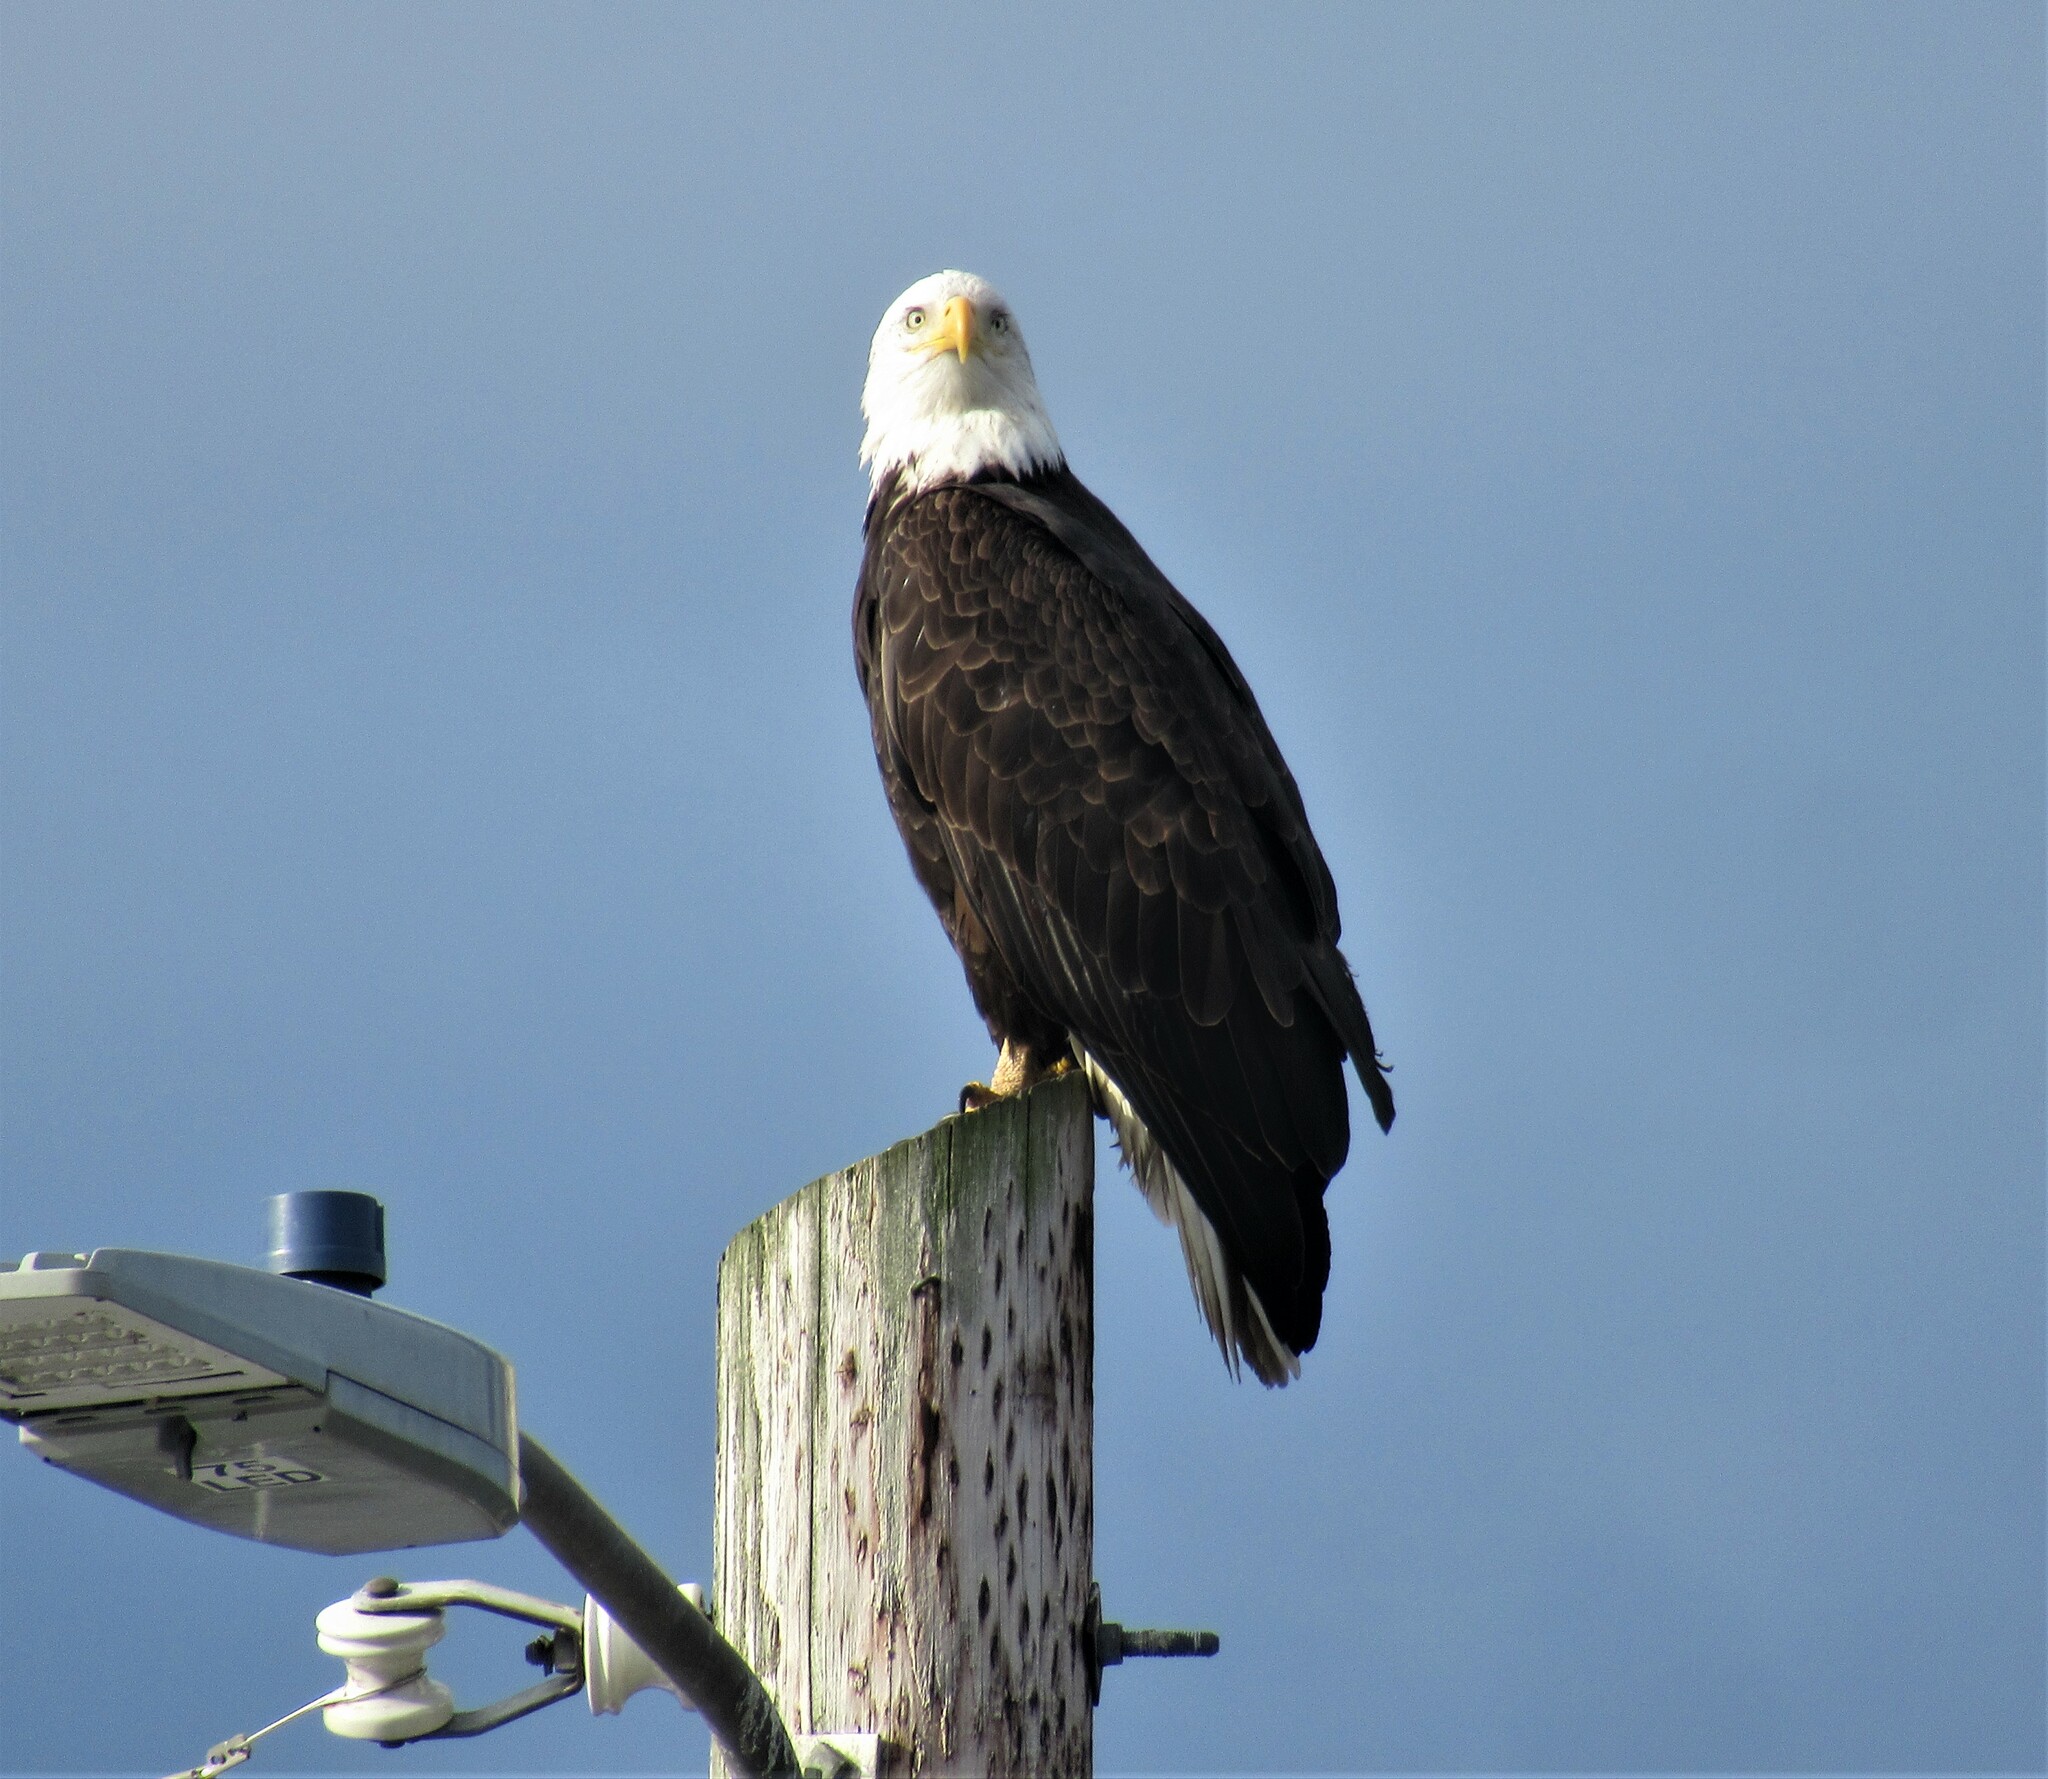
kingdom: Animalia
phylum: Chordata
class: Aves
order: Accipitriformes
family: Accipitridae
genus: Haliaeetus
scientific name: Haliaeetus leucocephalus
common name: Bald eagle
